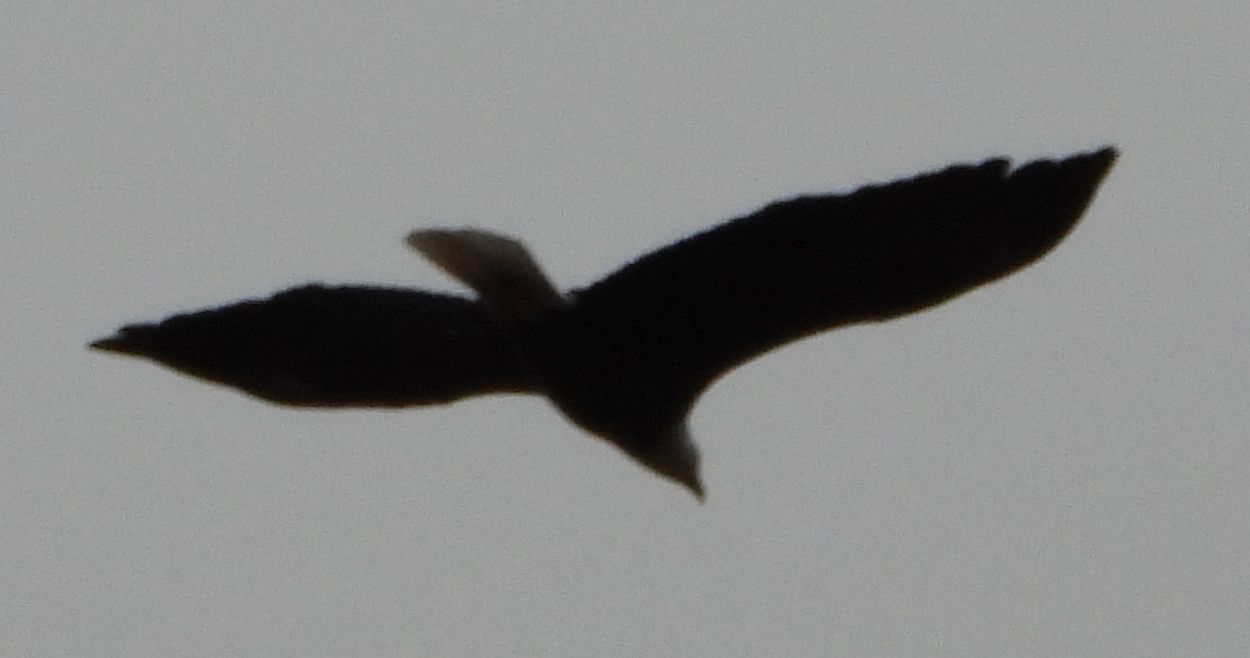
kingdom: Animalia
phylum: Chordata
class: Aves
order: Accipitriformes
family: Accipitridae
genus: Haliaeetus
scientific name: Haliaeetus leucocephalus
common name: Bald eagle
